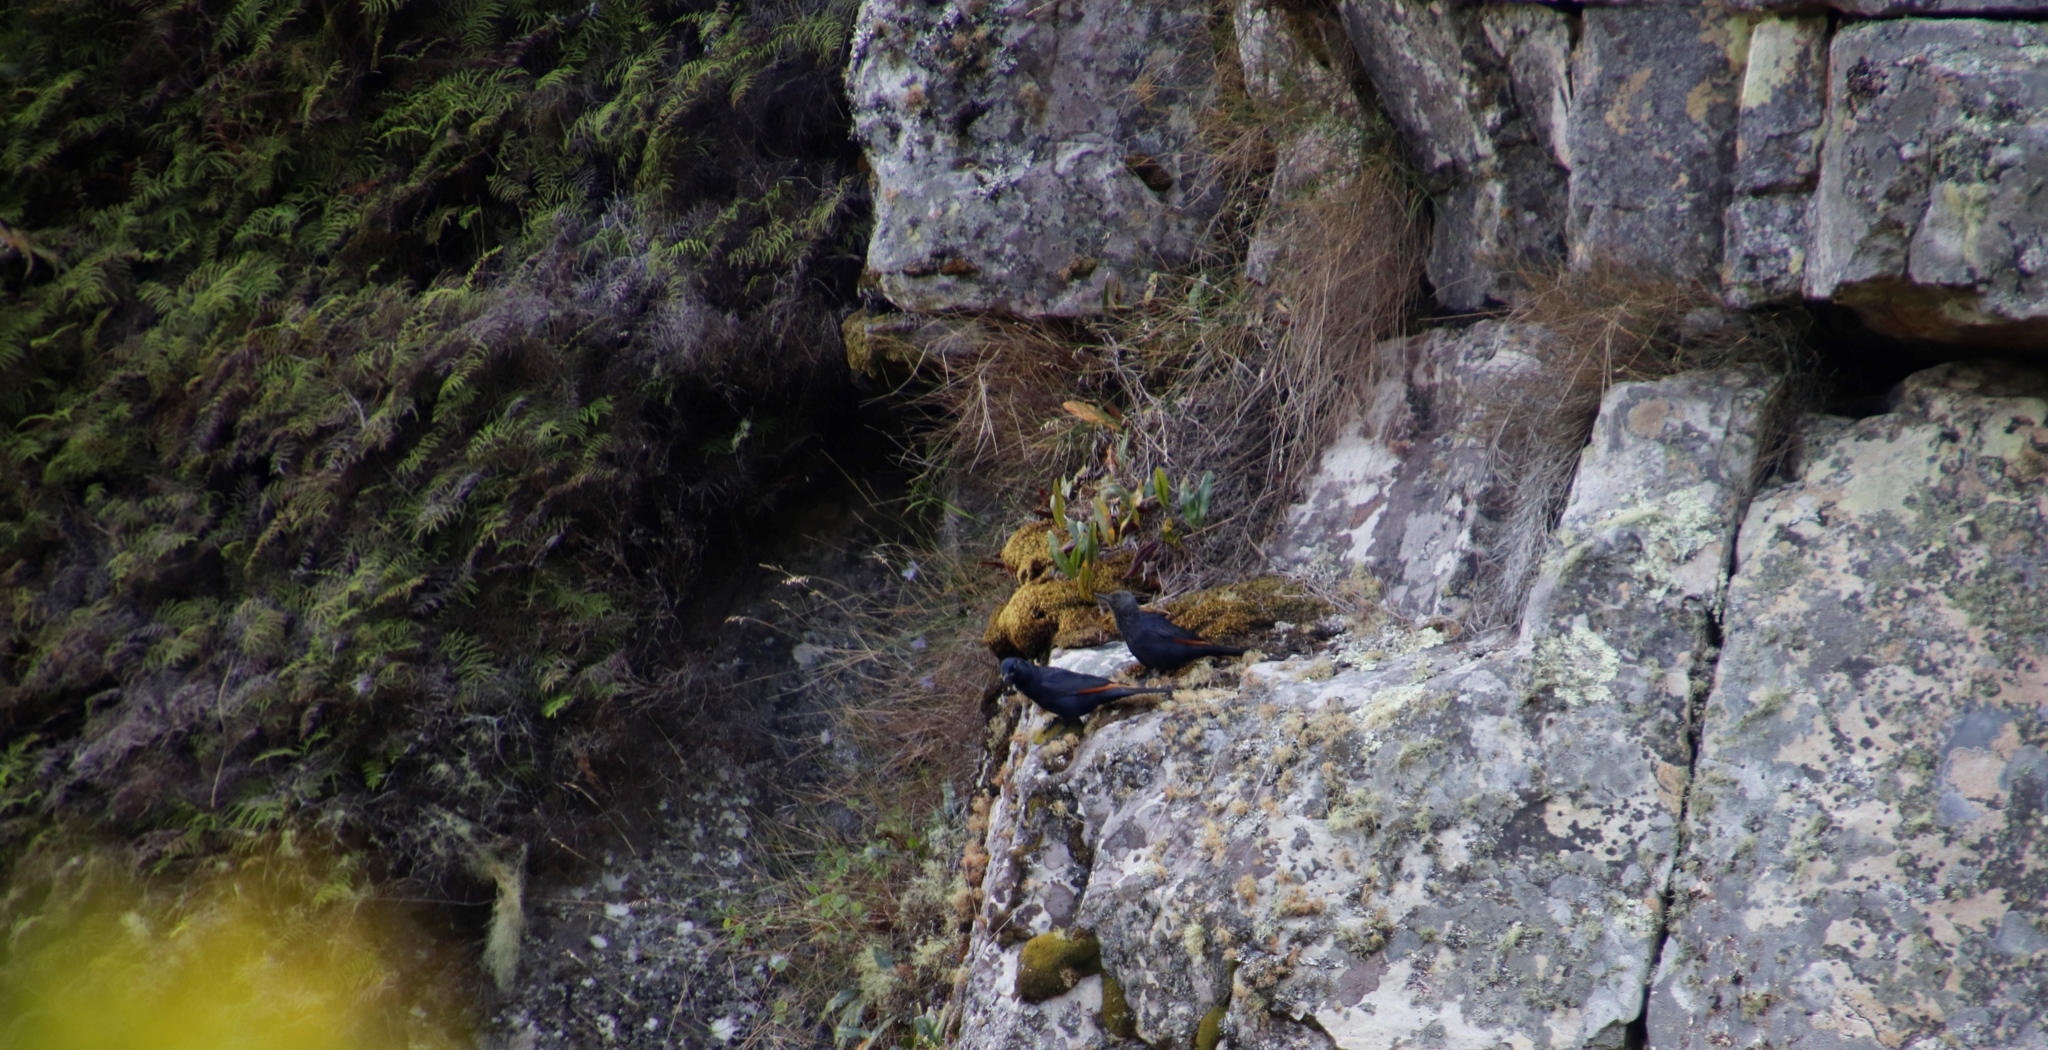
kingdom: Animalia
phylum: Chordata
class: Aves
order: Passeriformes
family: Sturnidae
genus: Onychognathus
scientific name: Onychognathus morio
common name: Red-winged starling
